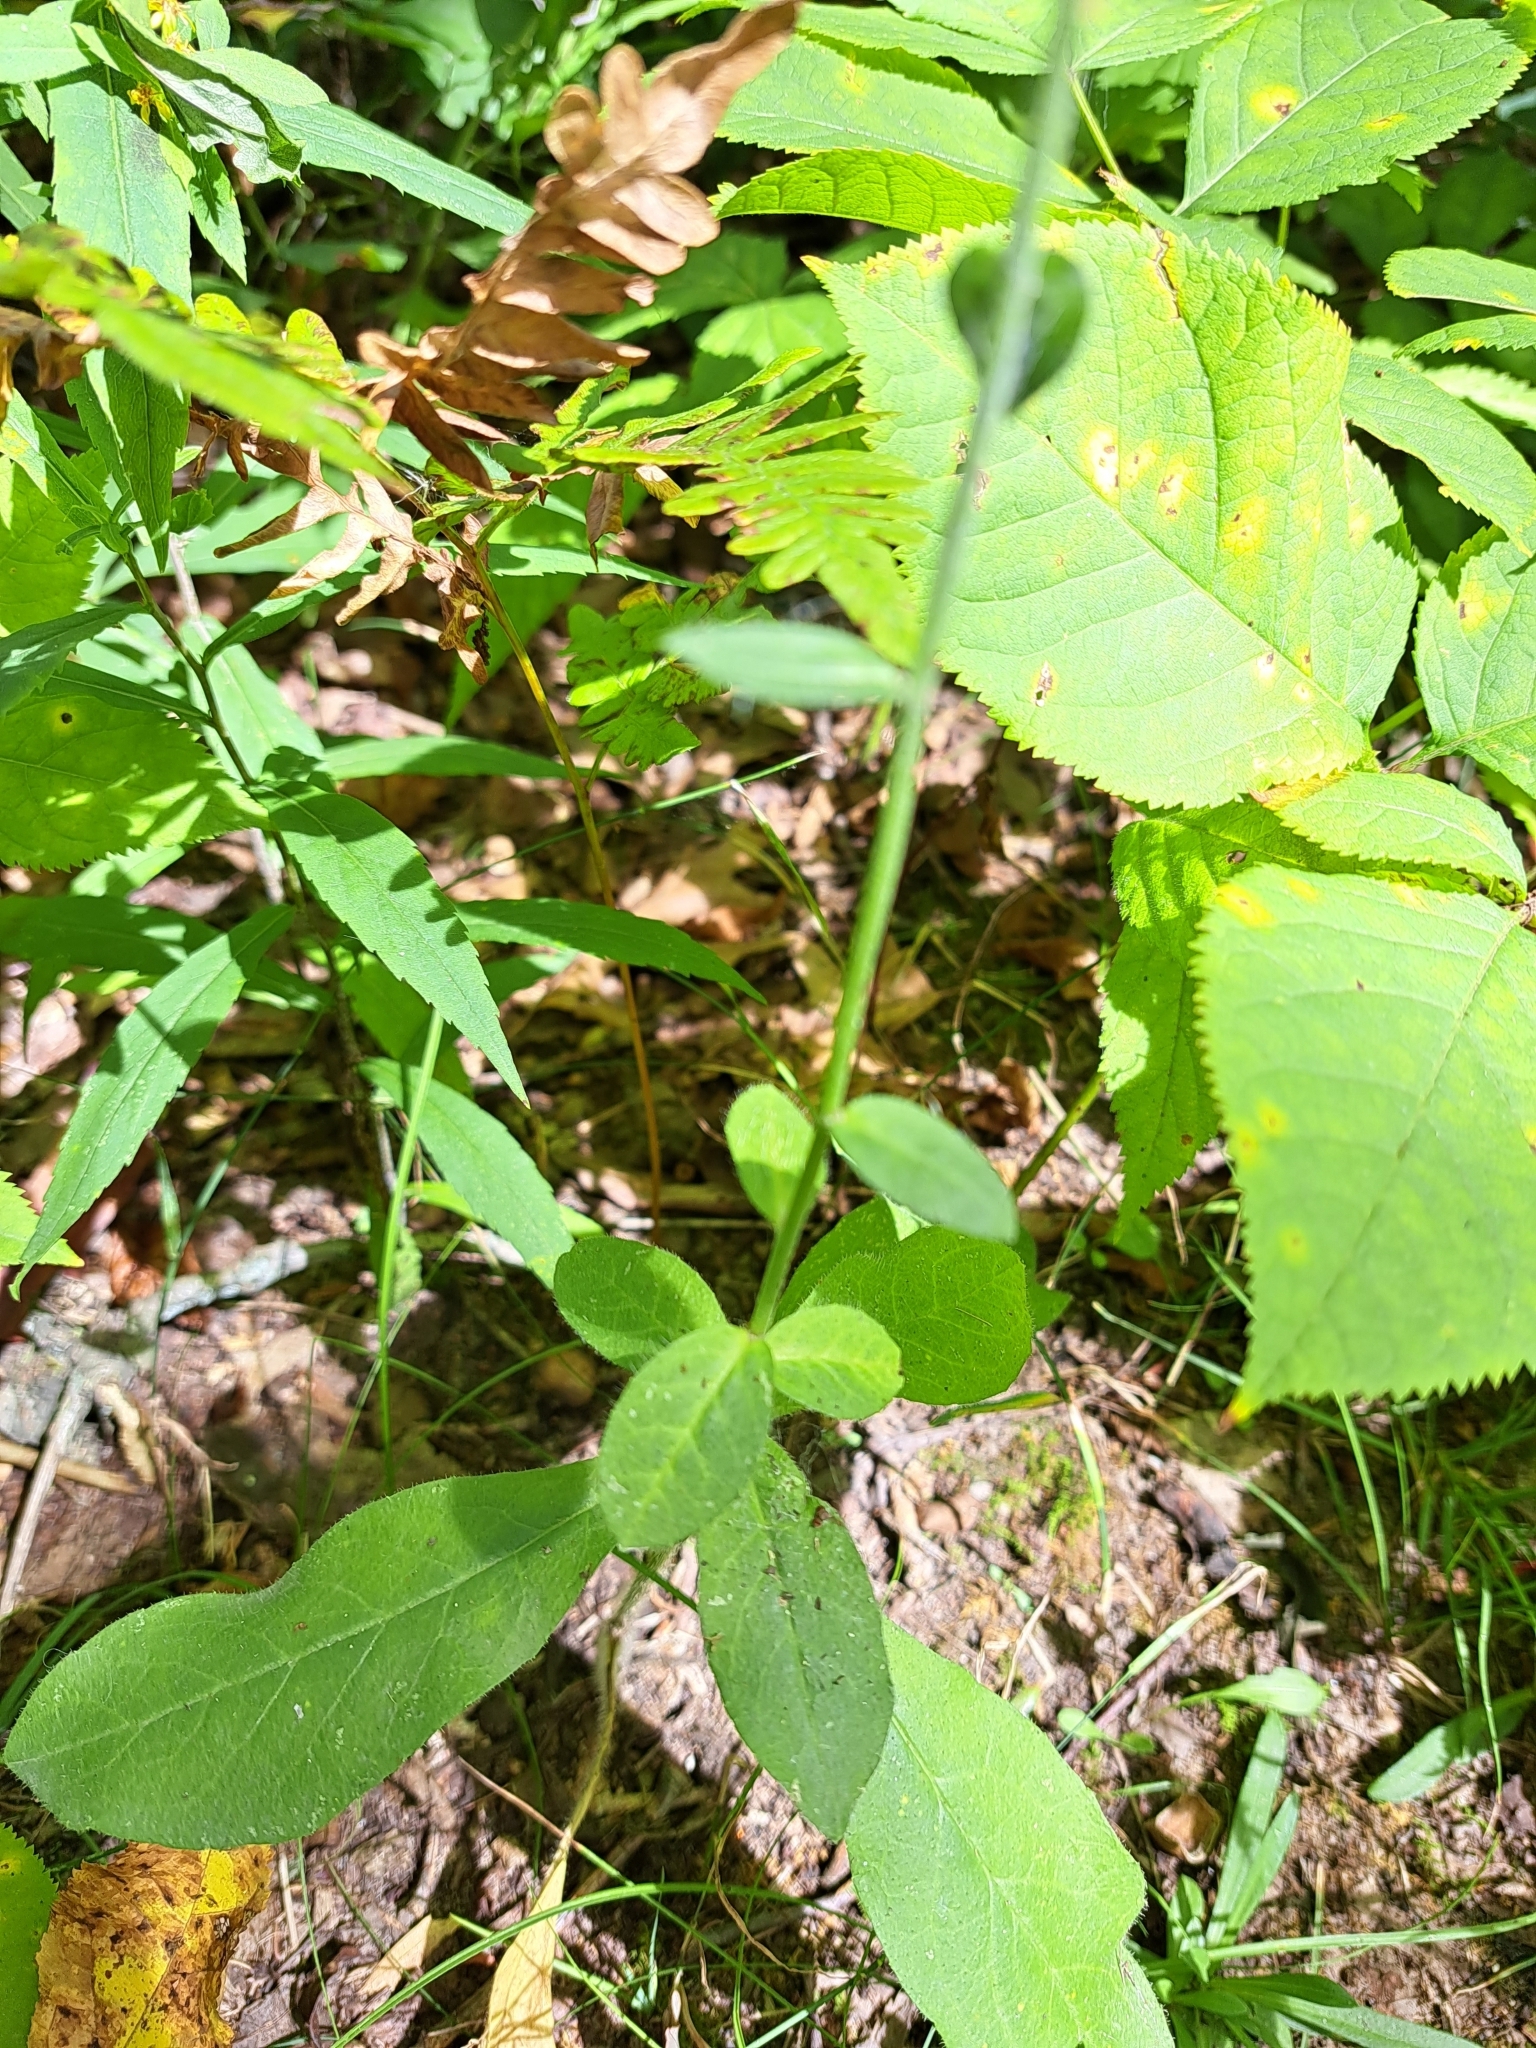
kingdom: Plantae
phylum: Tracheophyta
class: Magnoliopsida
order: Asterales
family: Asteraceae
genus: Hieracium
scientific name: Hieracium scabrum
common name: Rough hawkweed
